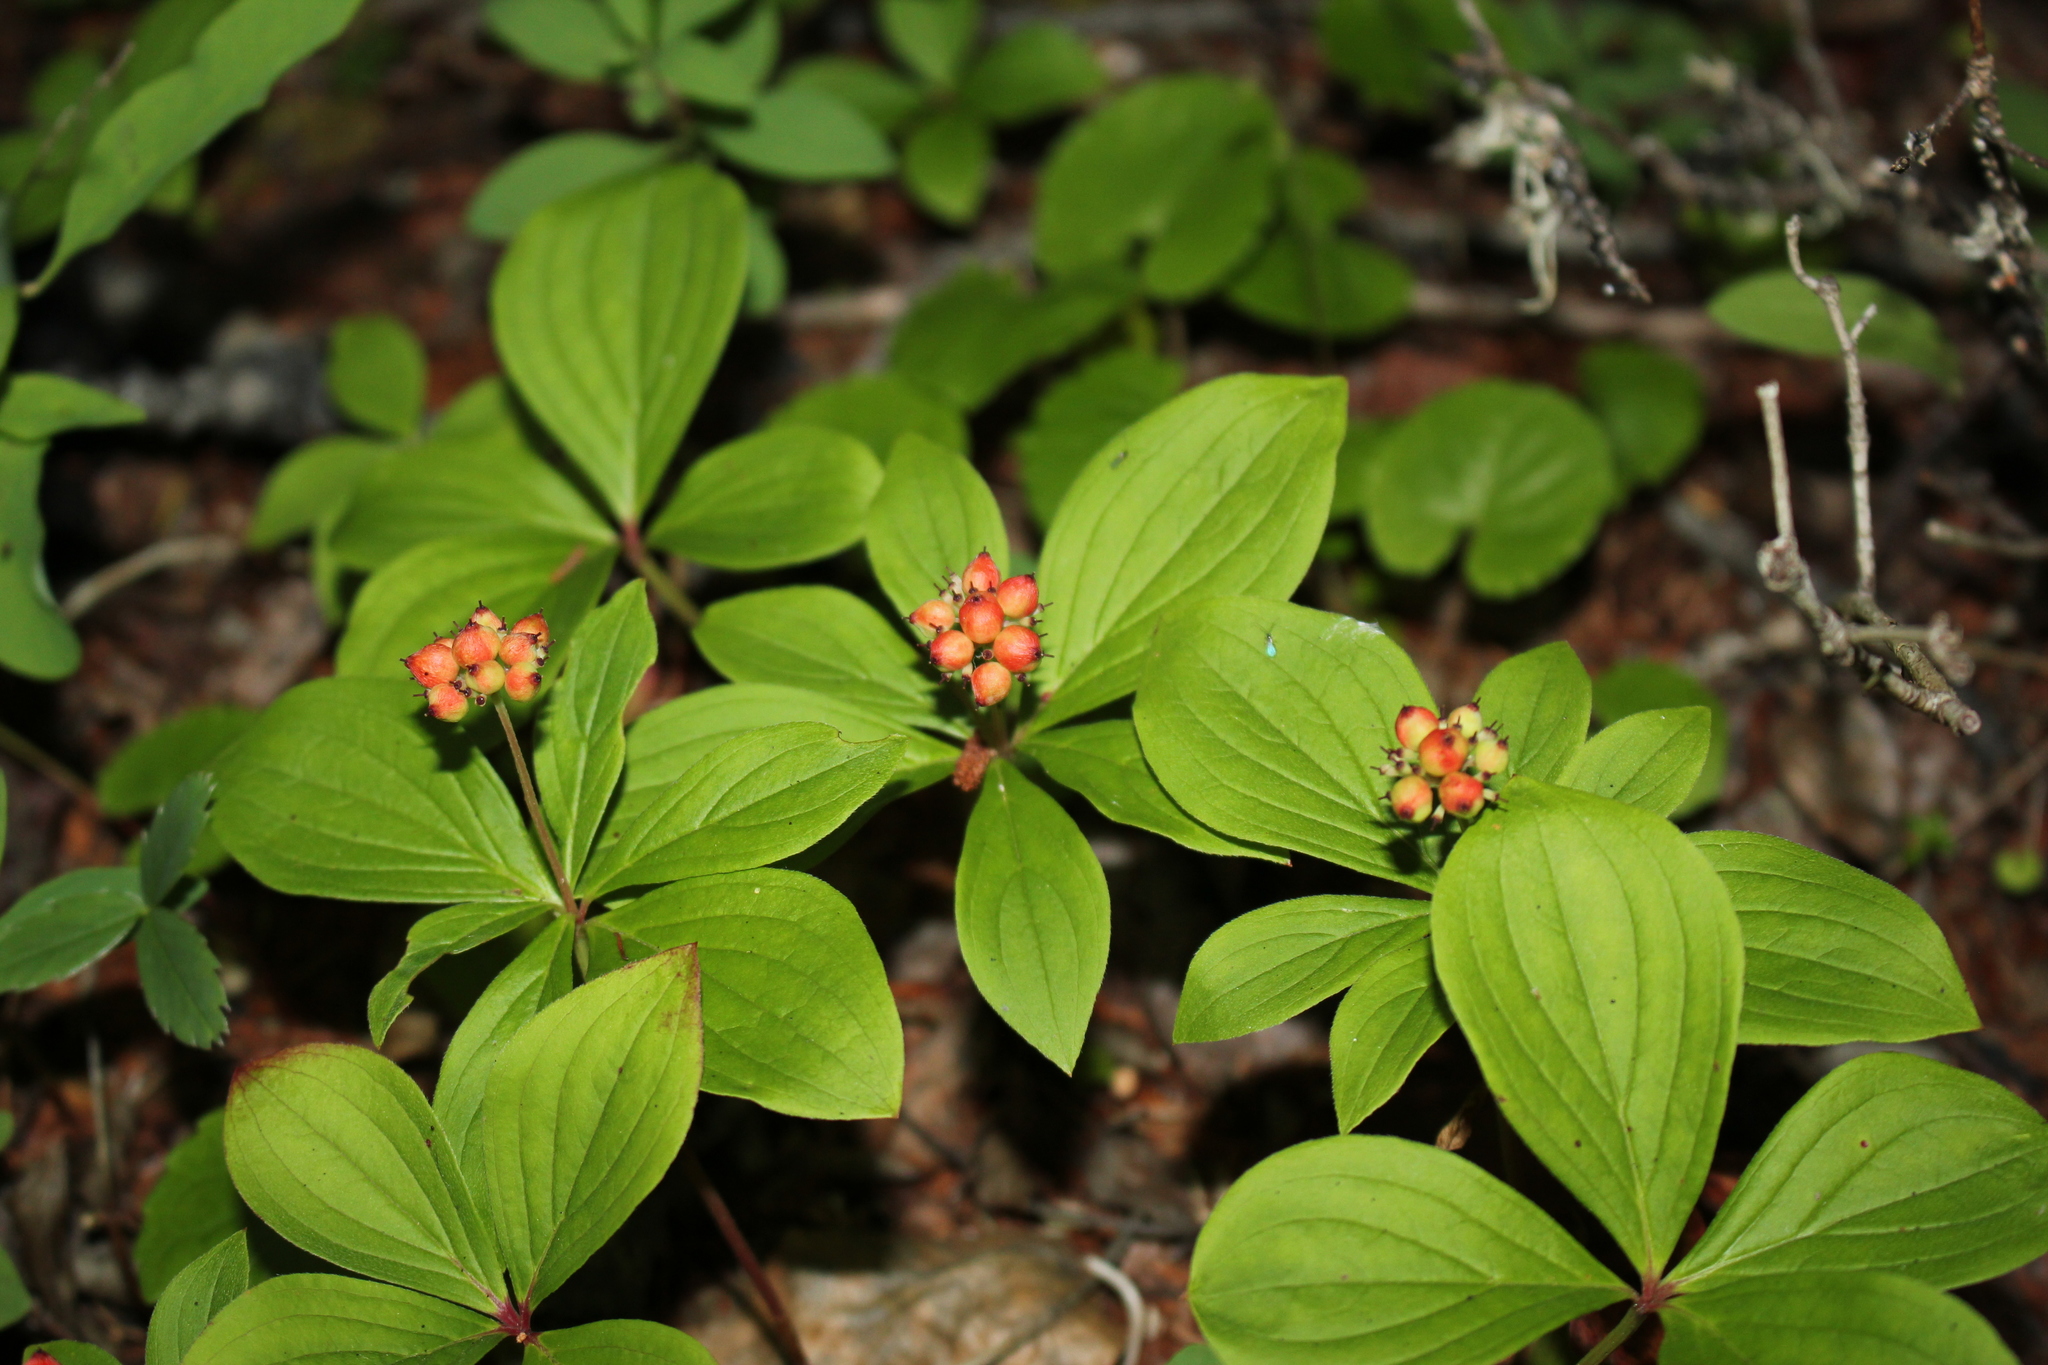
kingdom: Plantae
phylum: Tracheophyta
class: Magnoliopsida
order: Cornales
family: Cornaceae
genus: Cornus
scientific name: Cornus canadensis
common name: Creeping dogwood
